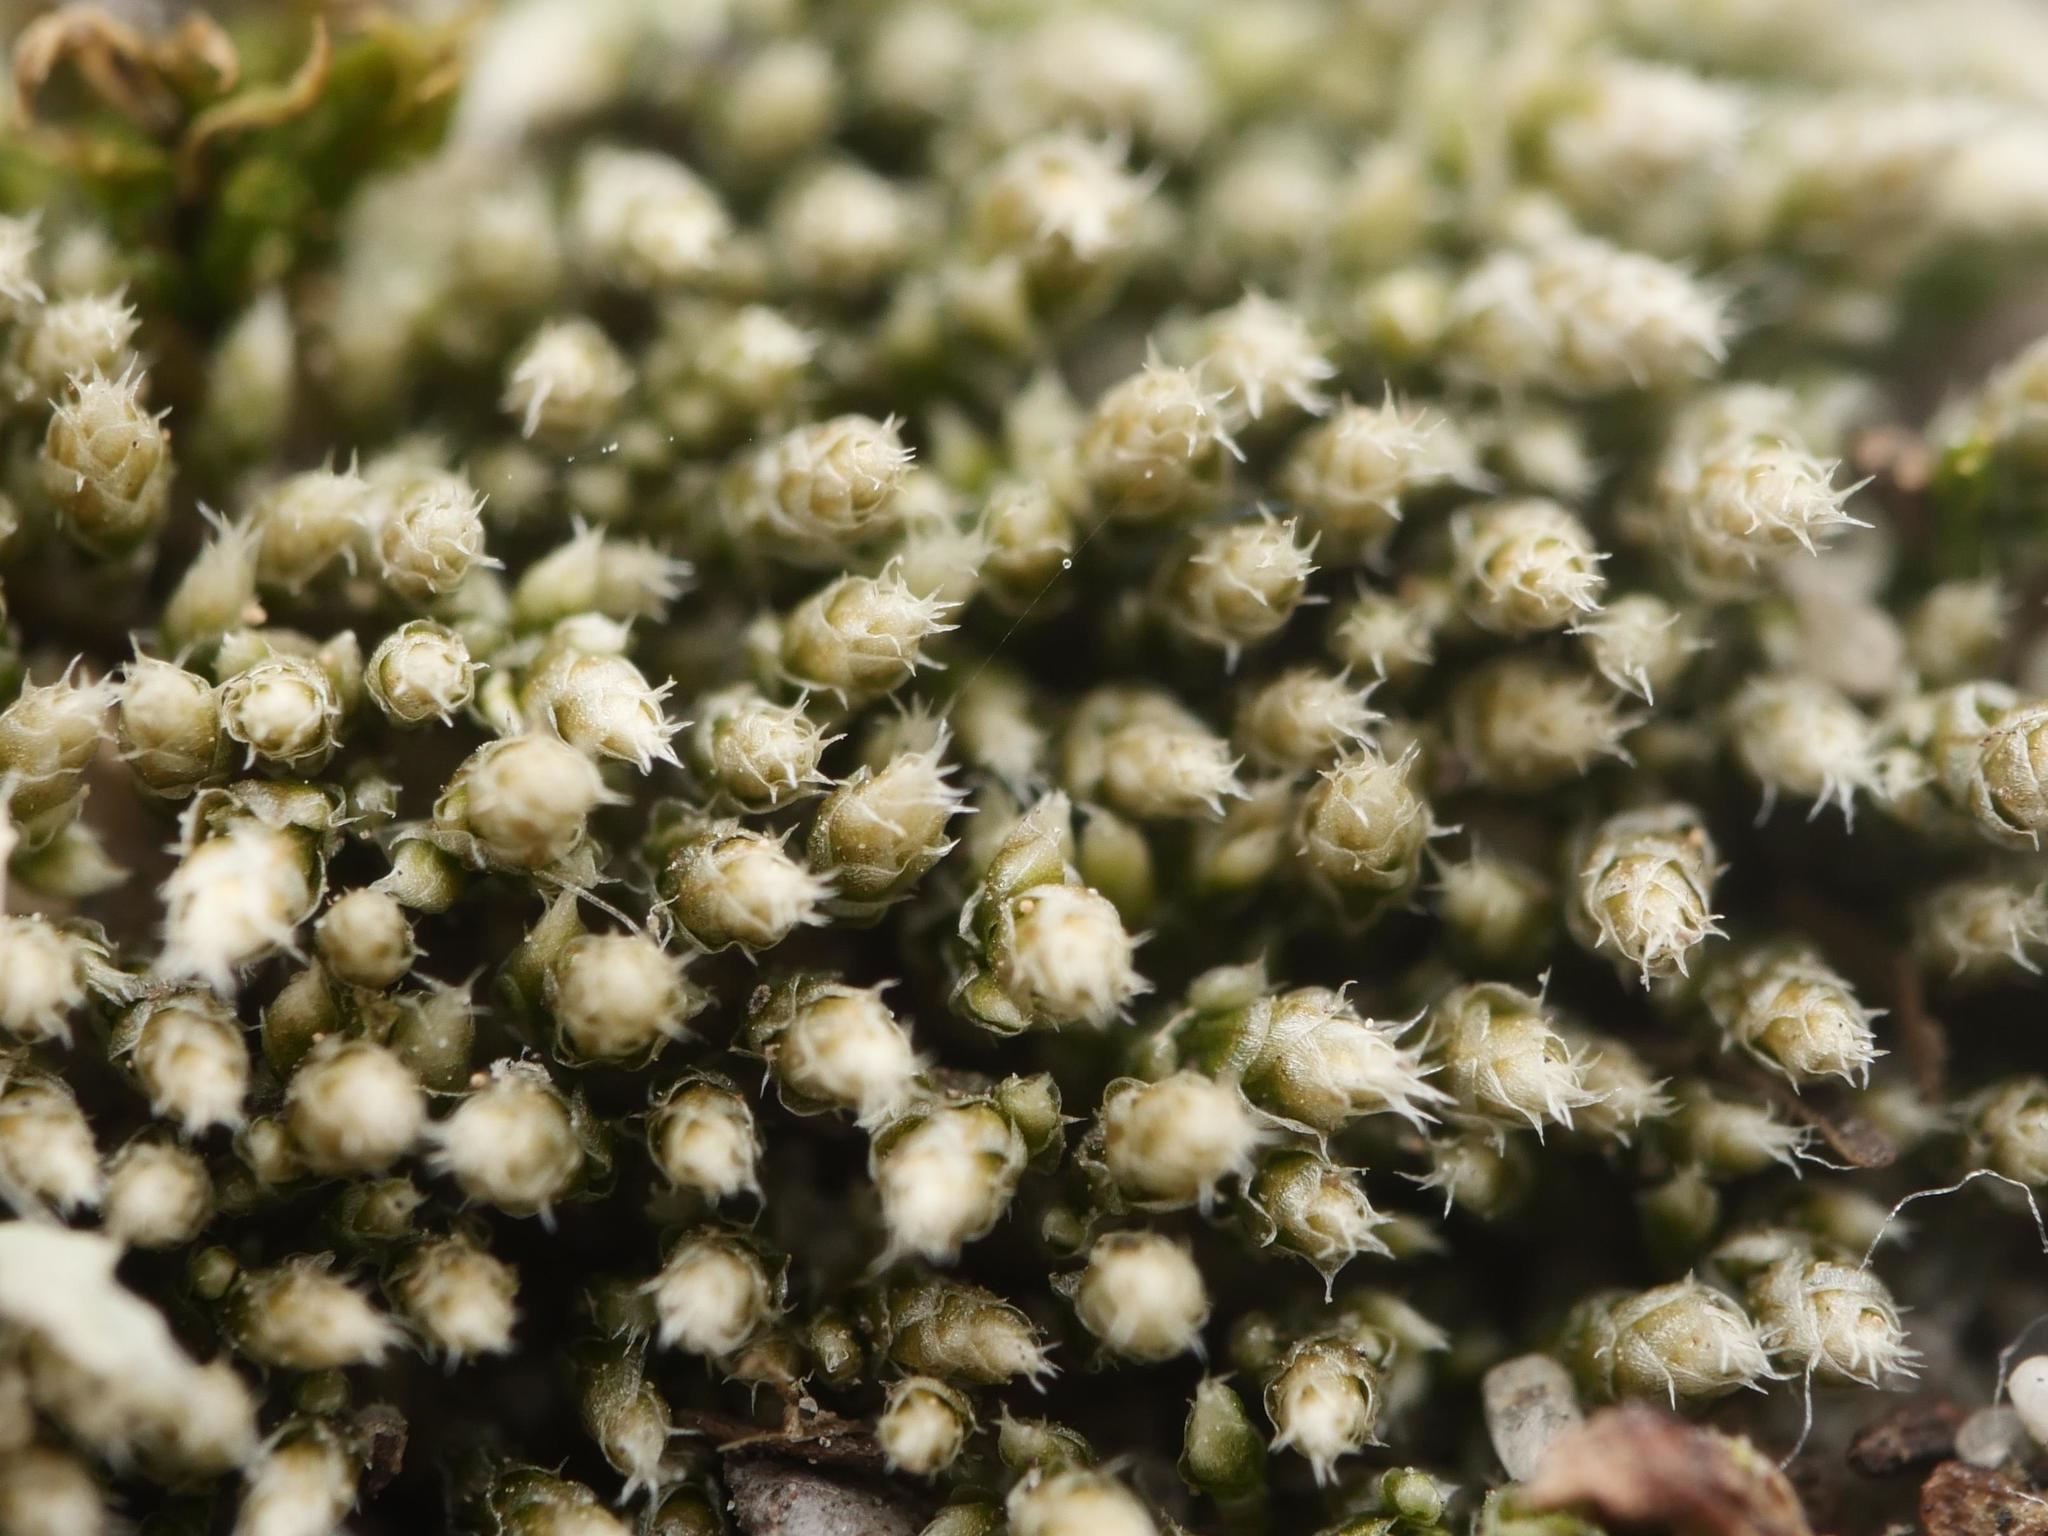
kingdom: Plantae
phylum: Bryophyta
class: Bryopsida
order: Bryales
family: Bryaceae
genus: Bryum
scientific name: Bryum argenteum
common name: Silver-moss
